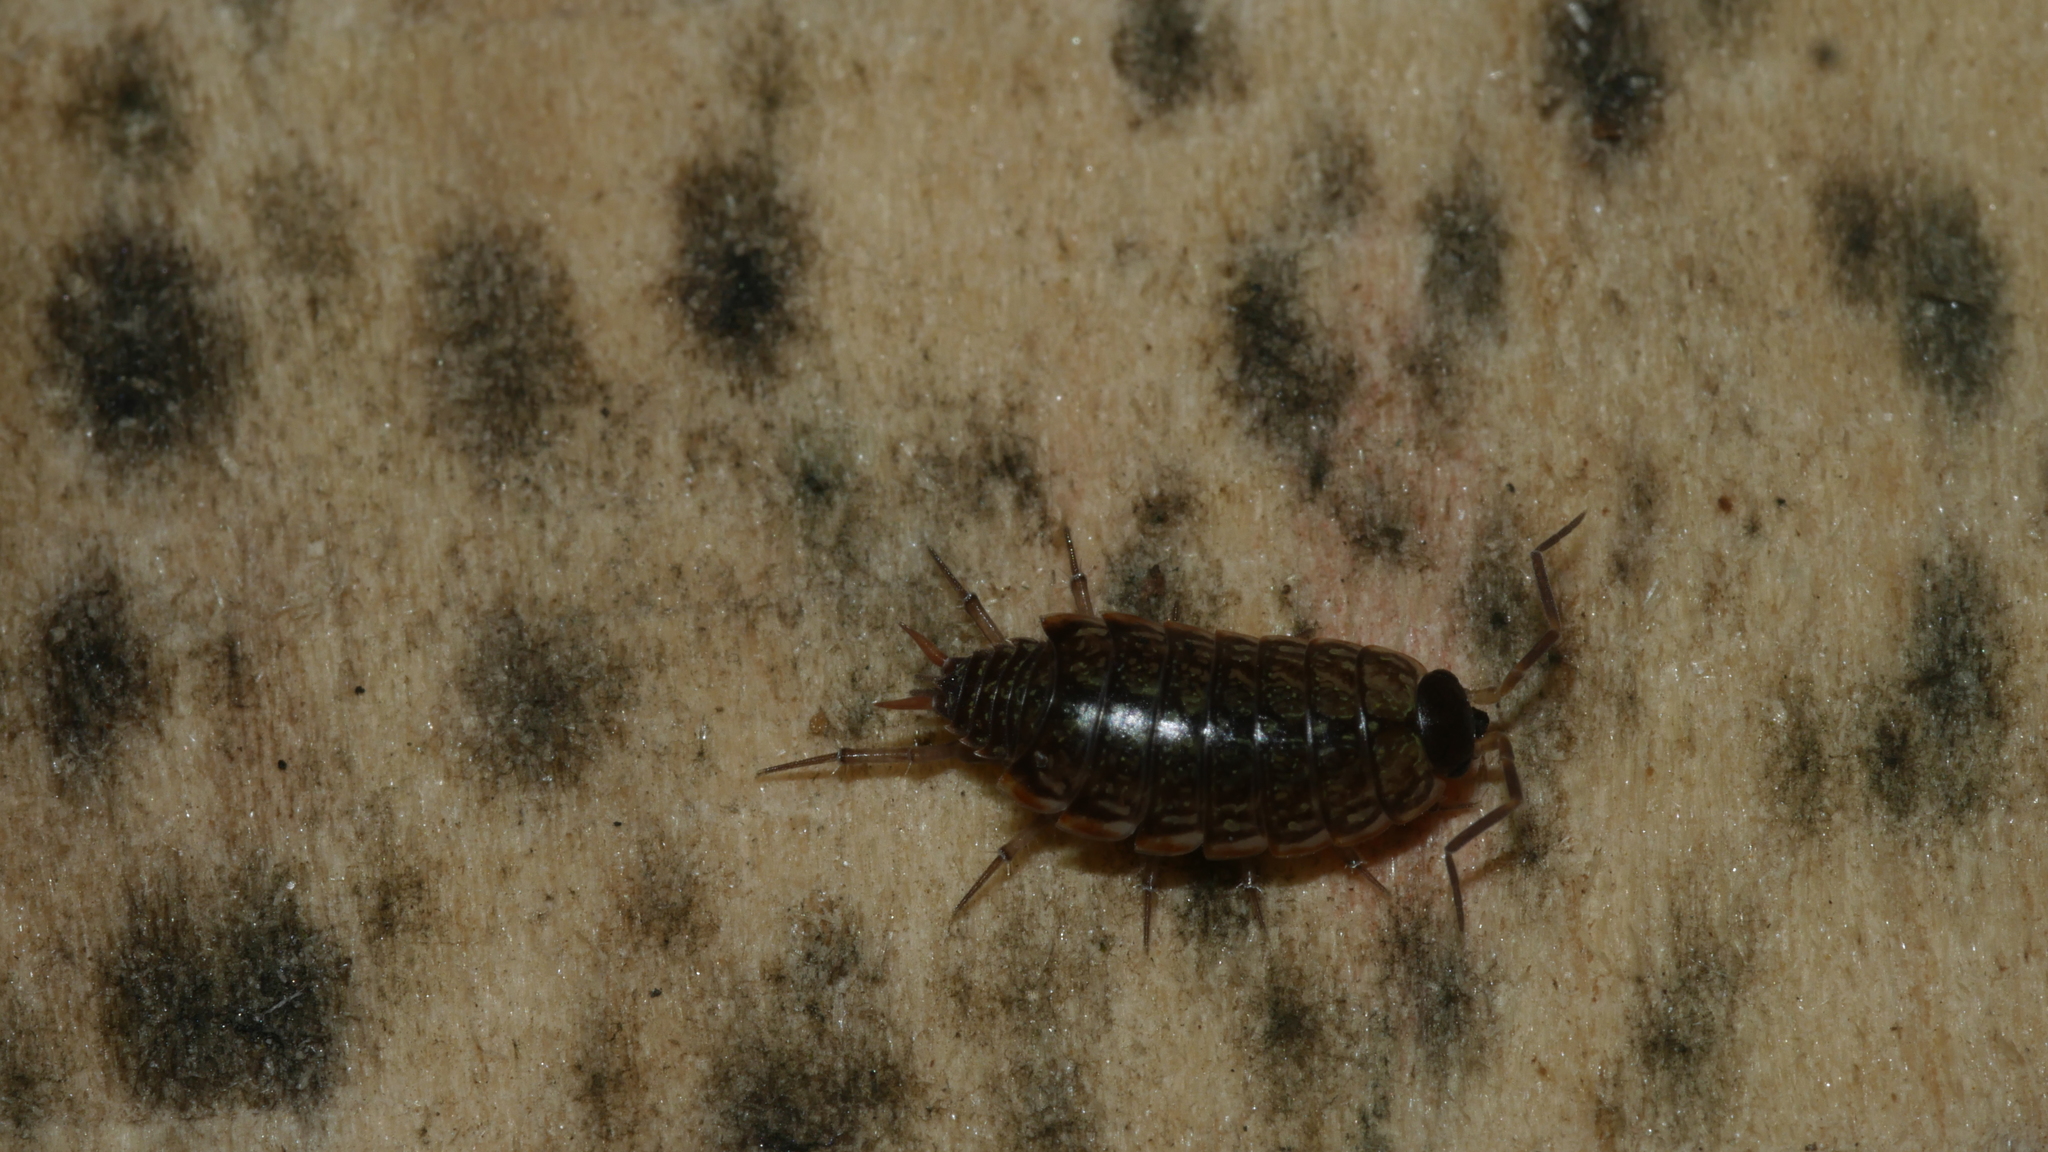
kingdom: Animalia
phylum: Arthropoda
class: Malacostraca
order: Isopoda
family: Philosciidae
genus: Philoscia
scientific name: Philoscia muscorum
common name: Common striped woodlouse
